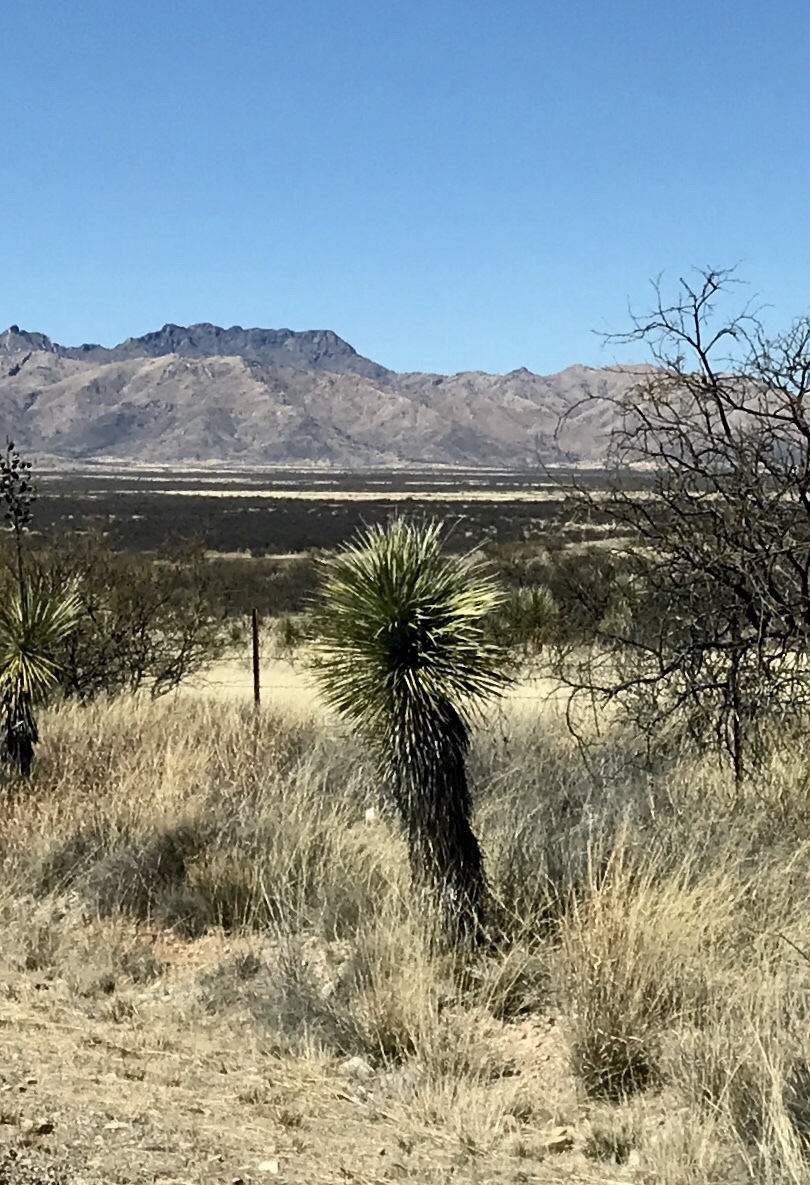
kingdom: Plantae
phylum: Tracheophyta
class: Liliopsida
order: Asparagales
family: Asparagaceae
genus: Yucca
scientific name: Yucca elata
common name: Palmella
